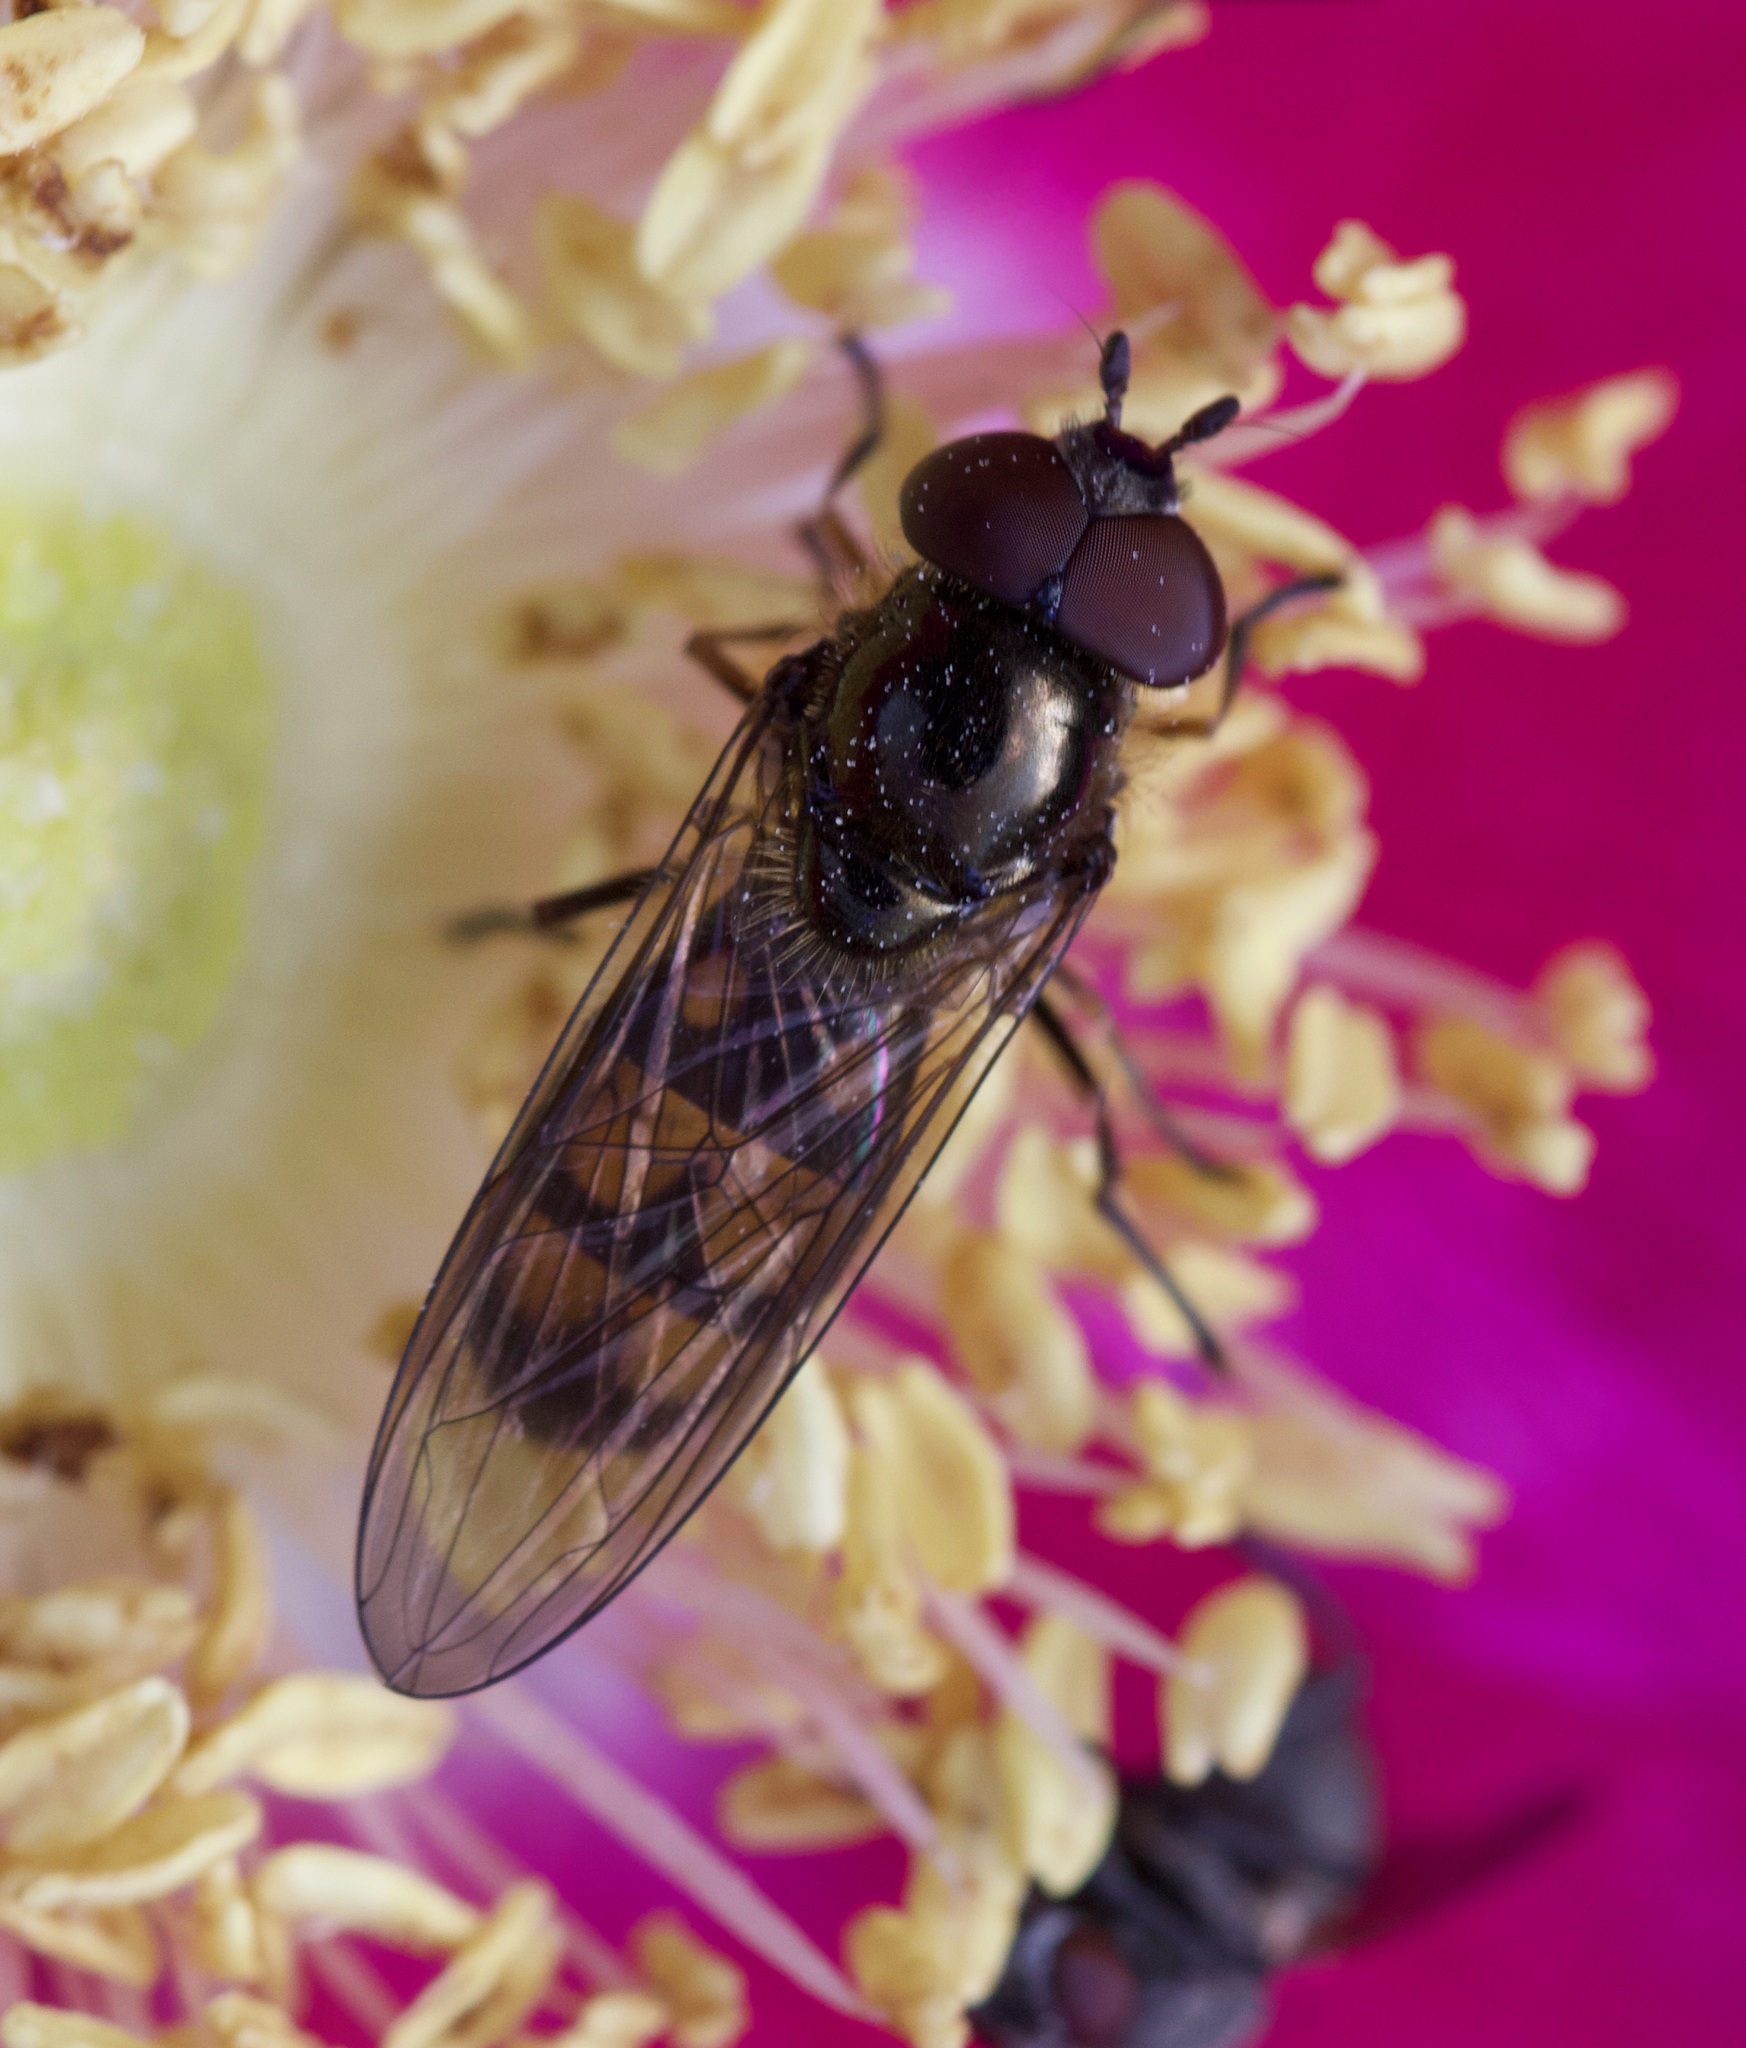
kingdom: Animalia
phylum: Arthropoda
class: Insecta
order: Diptera
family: Syrphidae
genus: Xanthandrus
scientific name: Xanthandrus comtus
